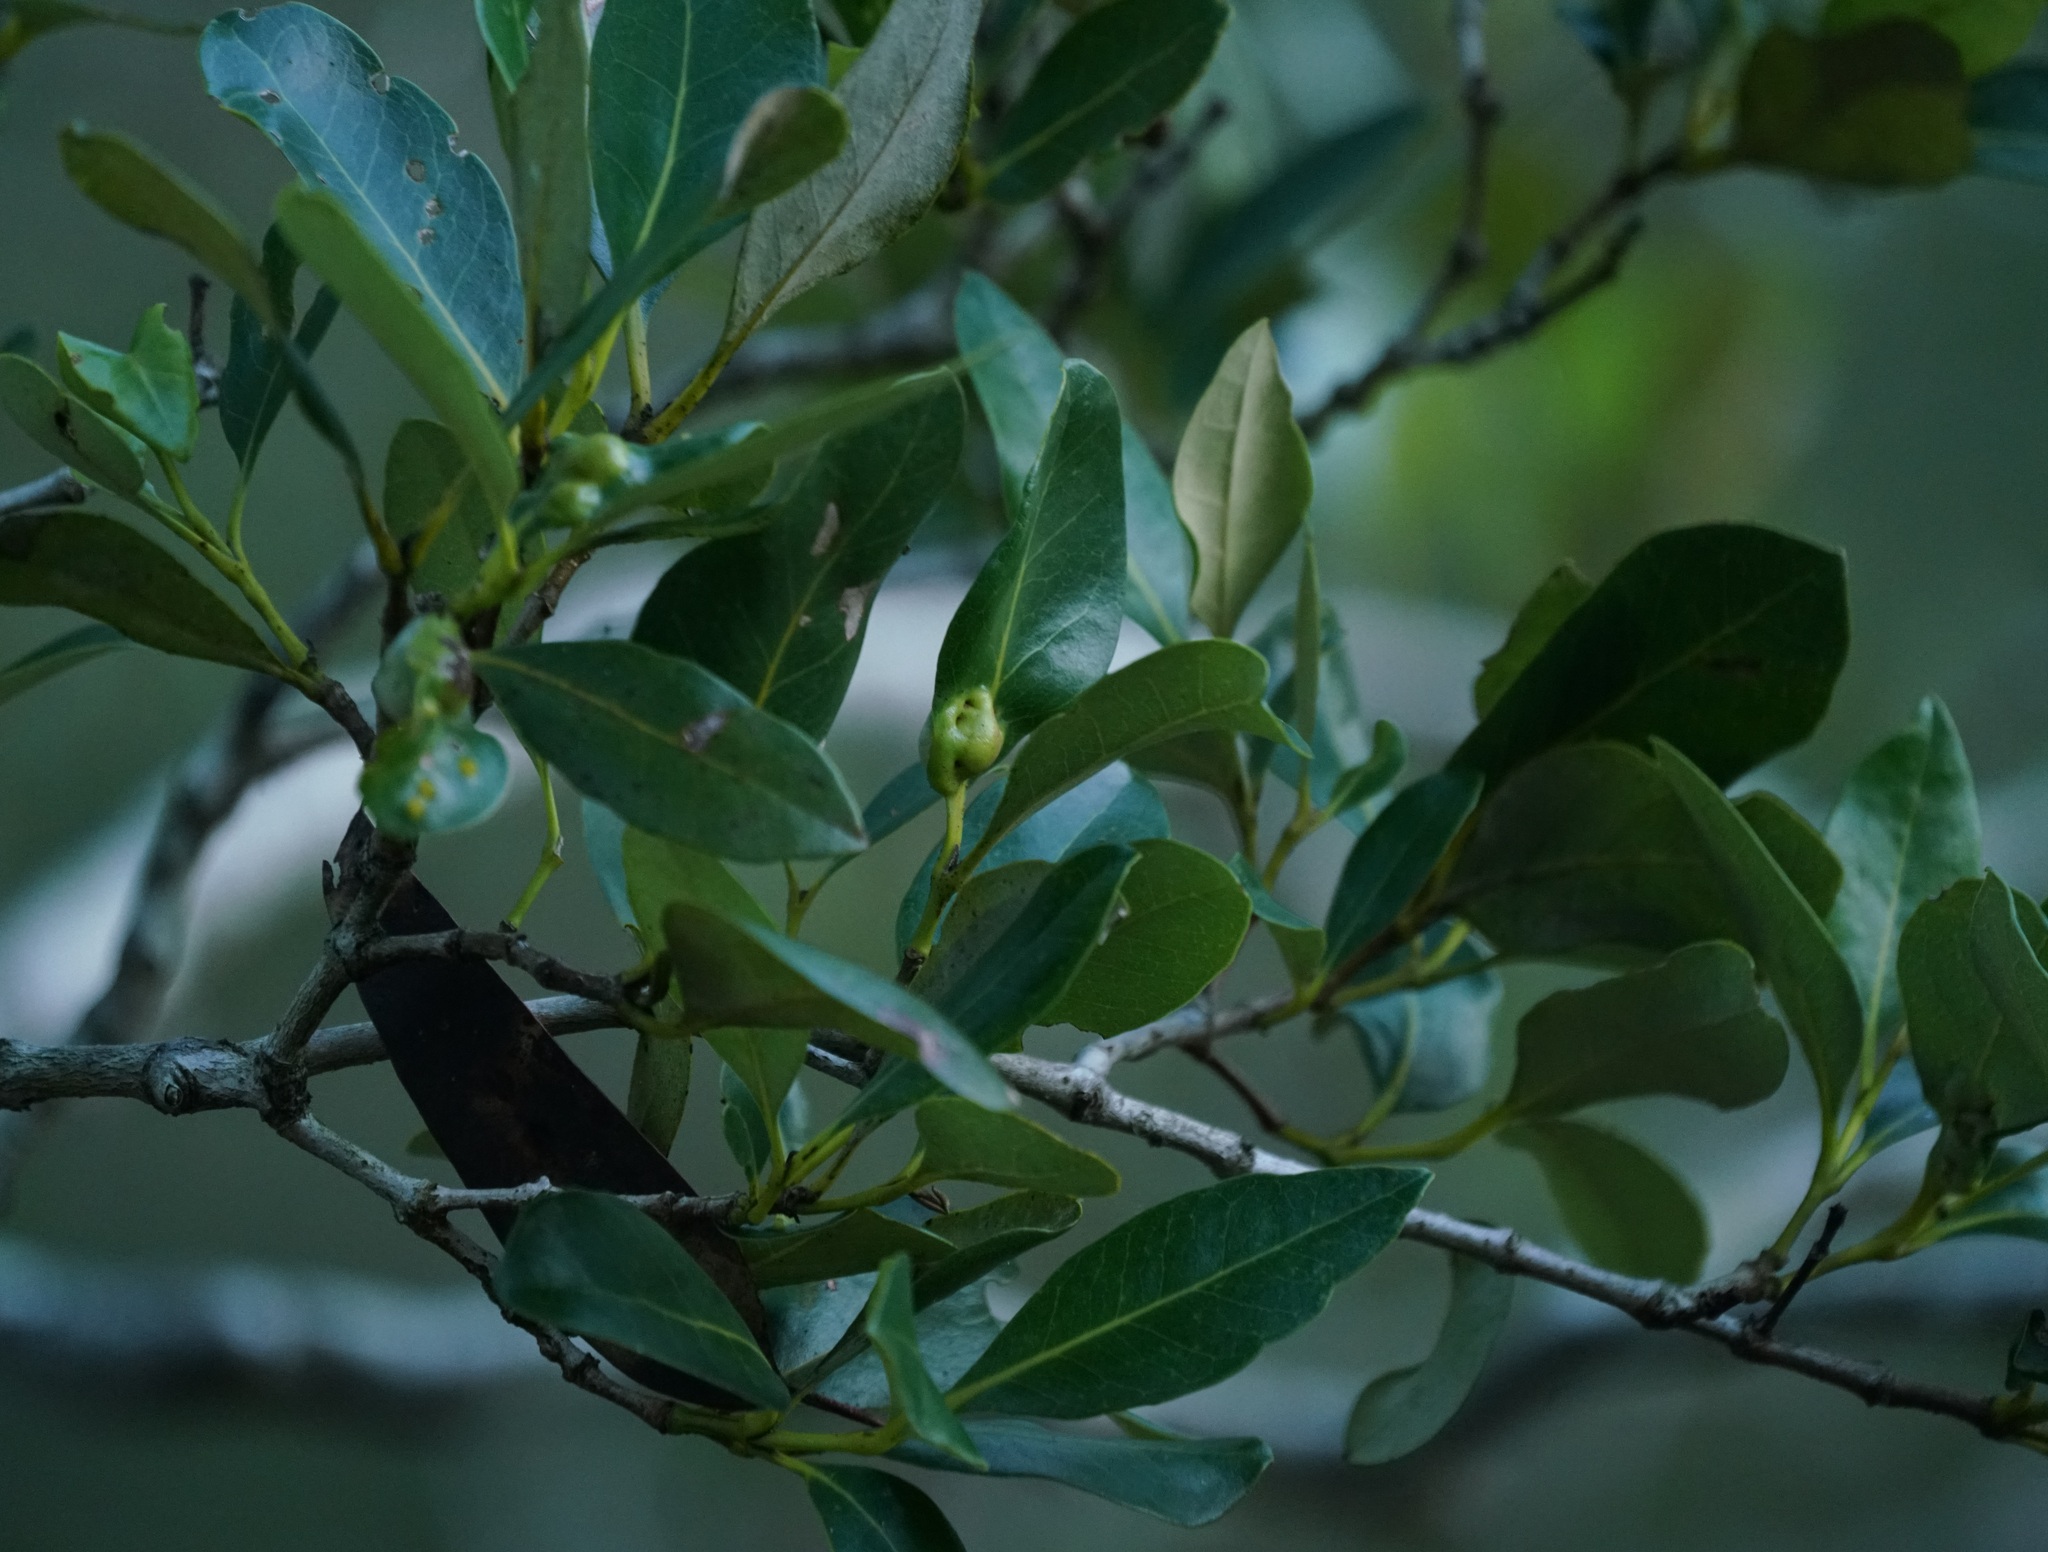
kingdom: Plantae
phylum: Tracheophyta
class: Magnoliopsida
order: Lamiales
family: Acanthaceae
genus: Avicennia
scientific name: Avicennia marina
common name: Gray mangrove
